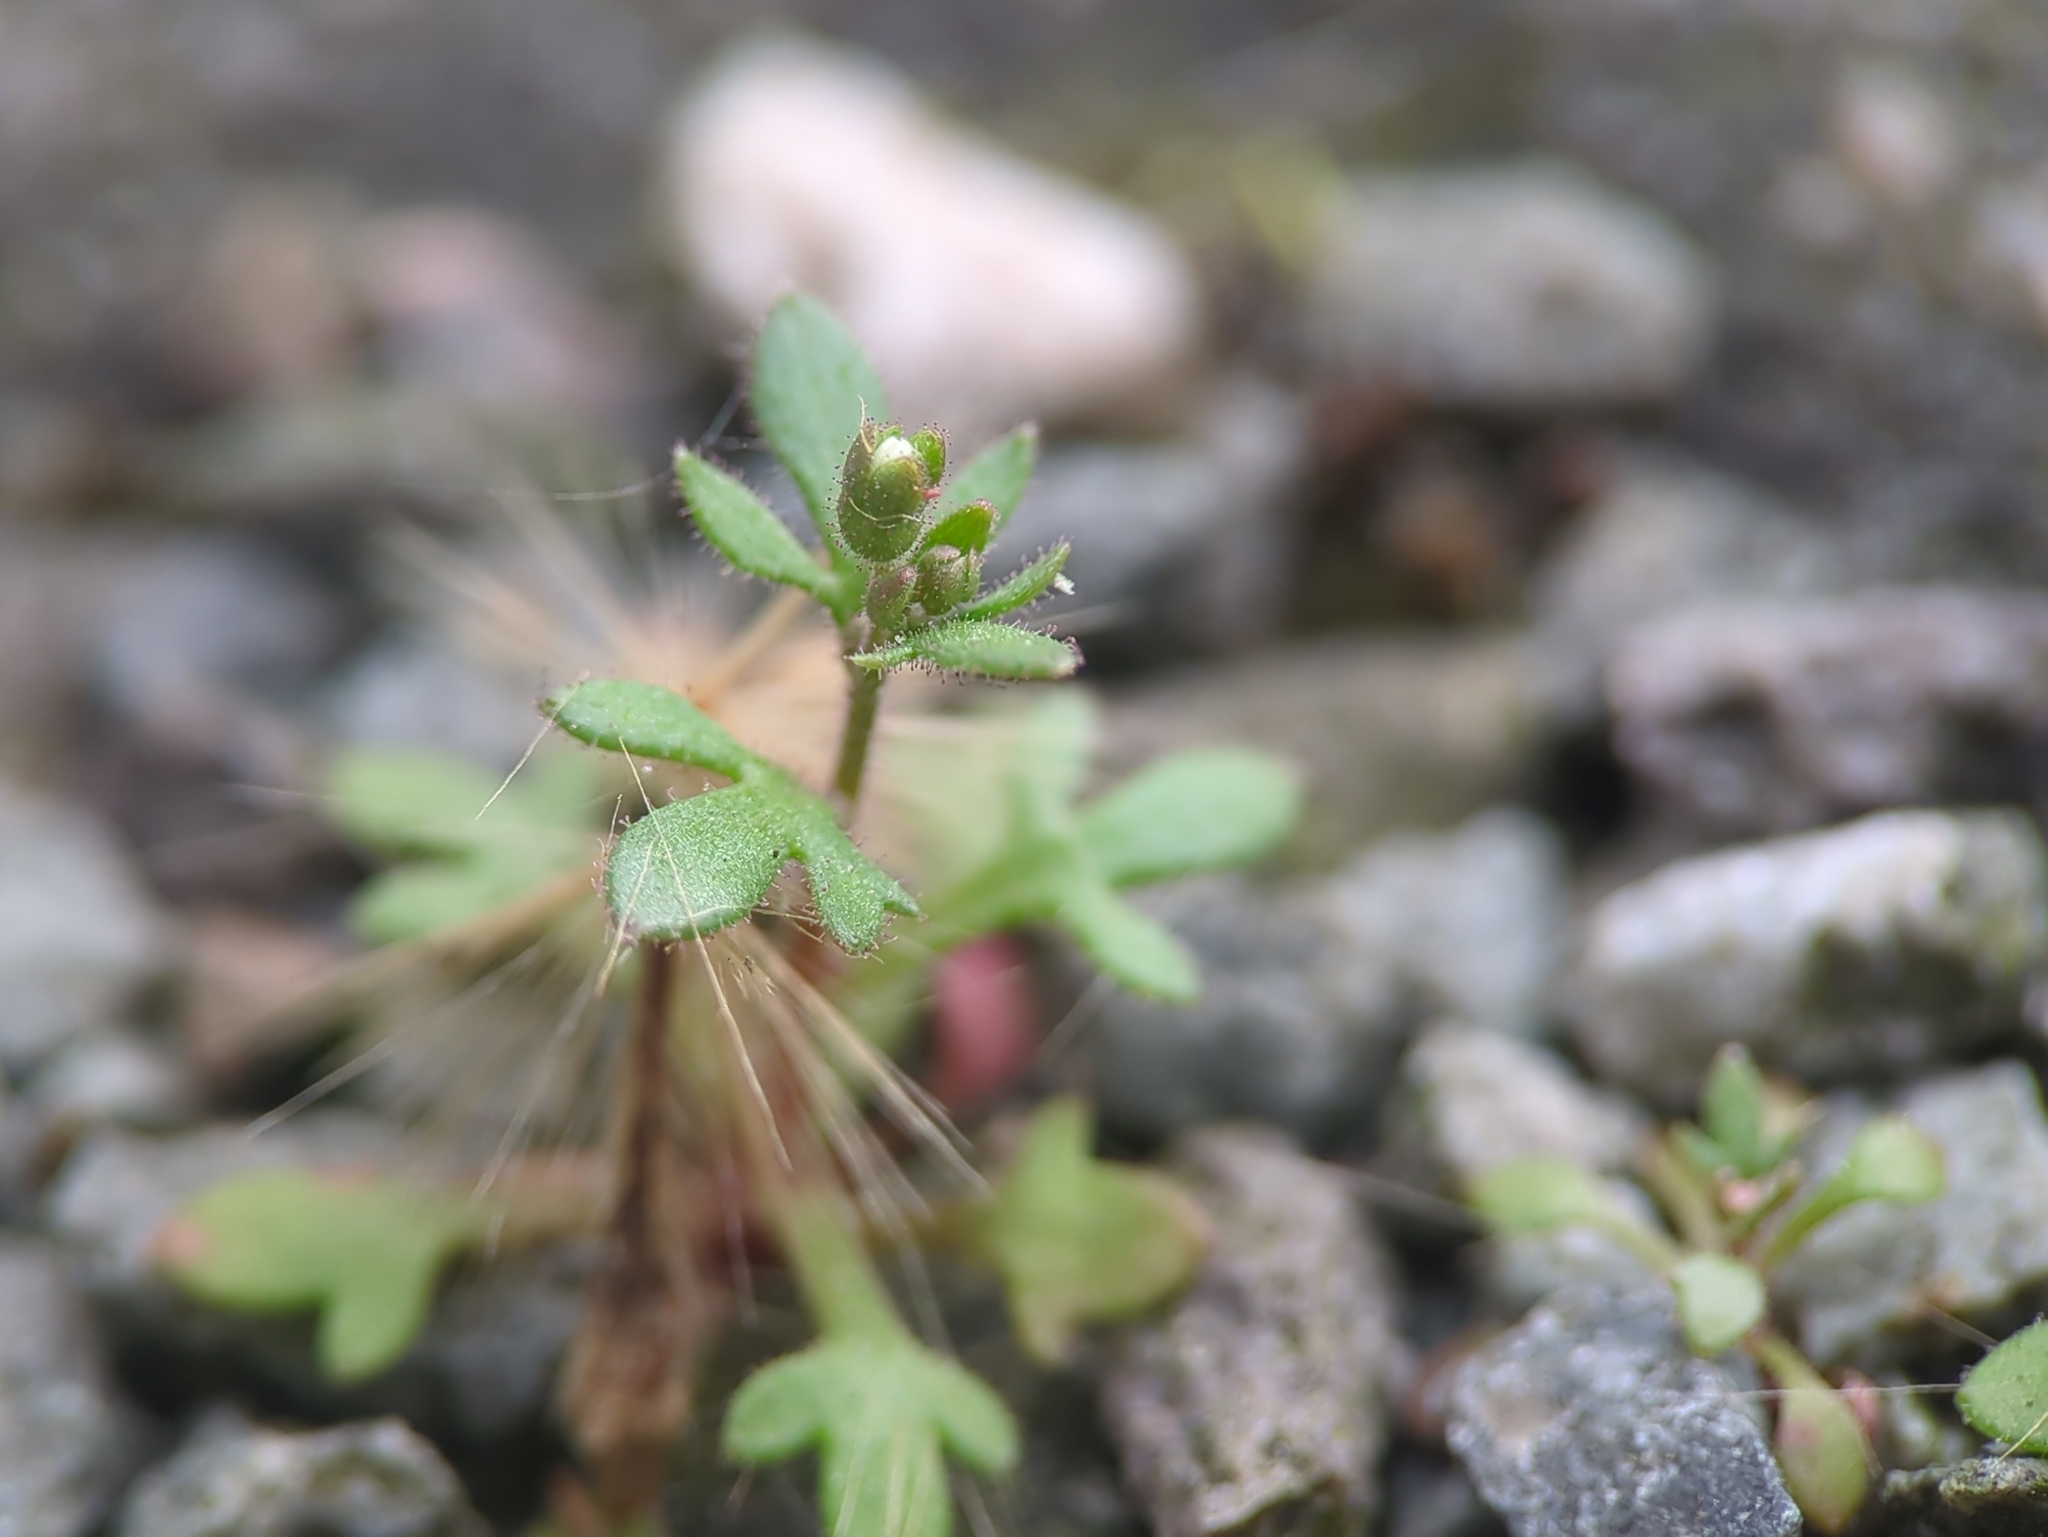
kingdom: Plantae
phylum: Tracheophyta
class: Magnoliopsida
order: Saxifragales
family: Saxifragaceae
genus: Saxifraga
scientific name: Saxifraga tridactylites
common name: Rue-leaved saxifrage
